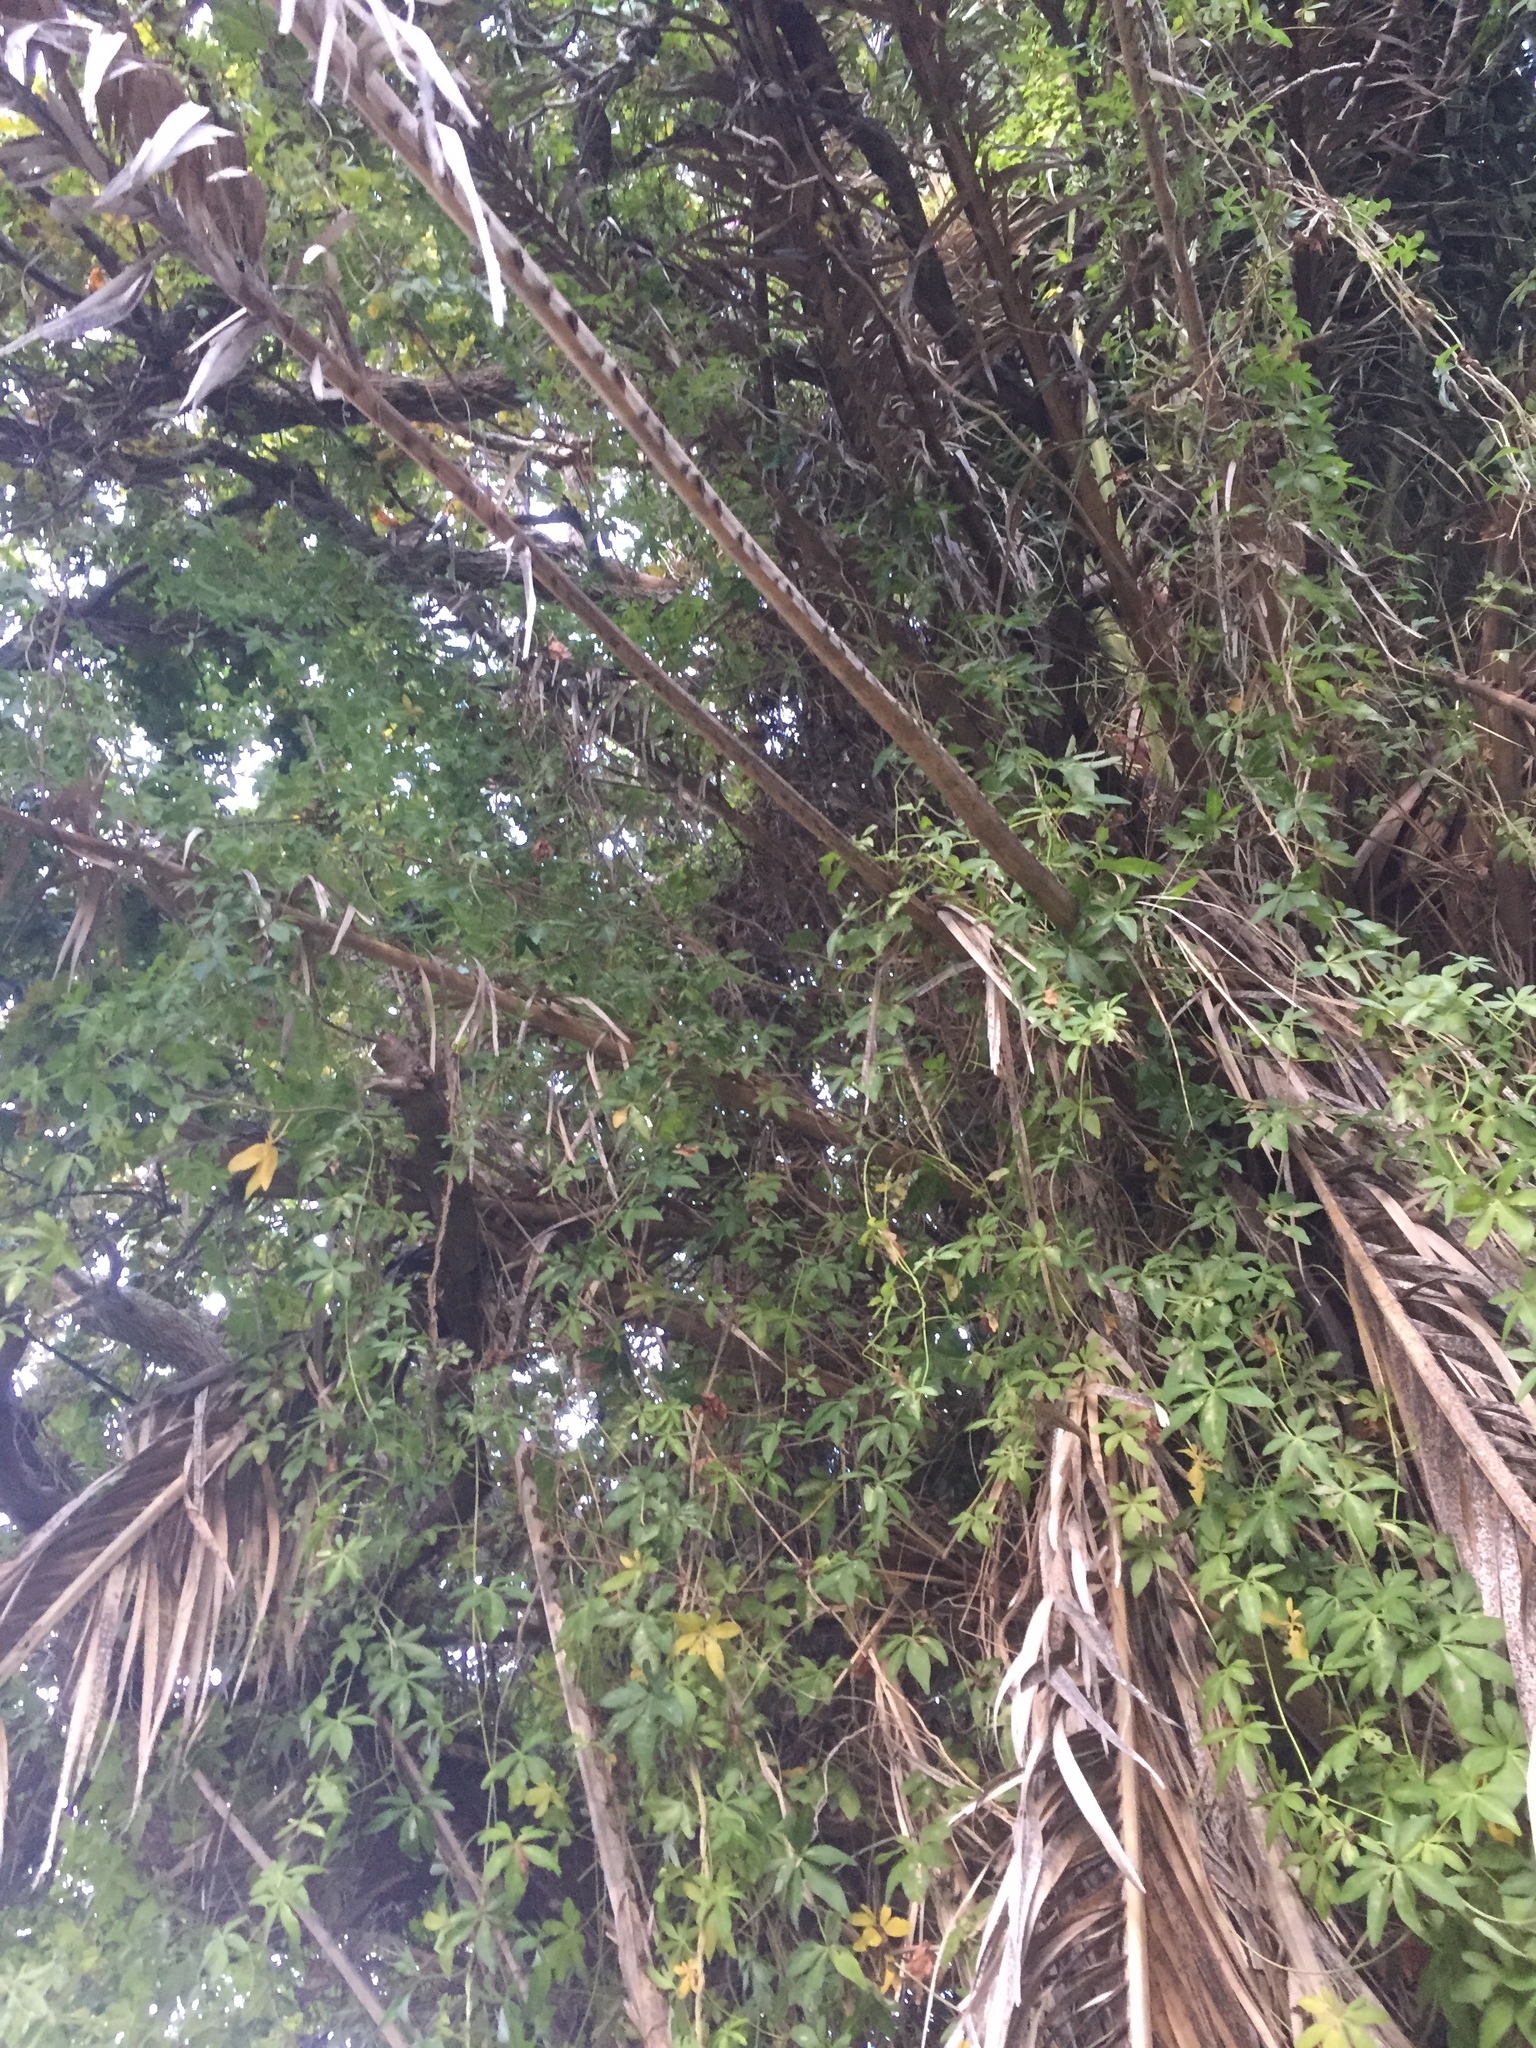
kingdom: Plantae
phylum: Tracheophyta
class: Magnoliopsida
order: Solanales
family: Convolvulaceae
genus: Ipomoea
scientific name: Ipomoea cairica
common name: Mile a minute vine
